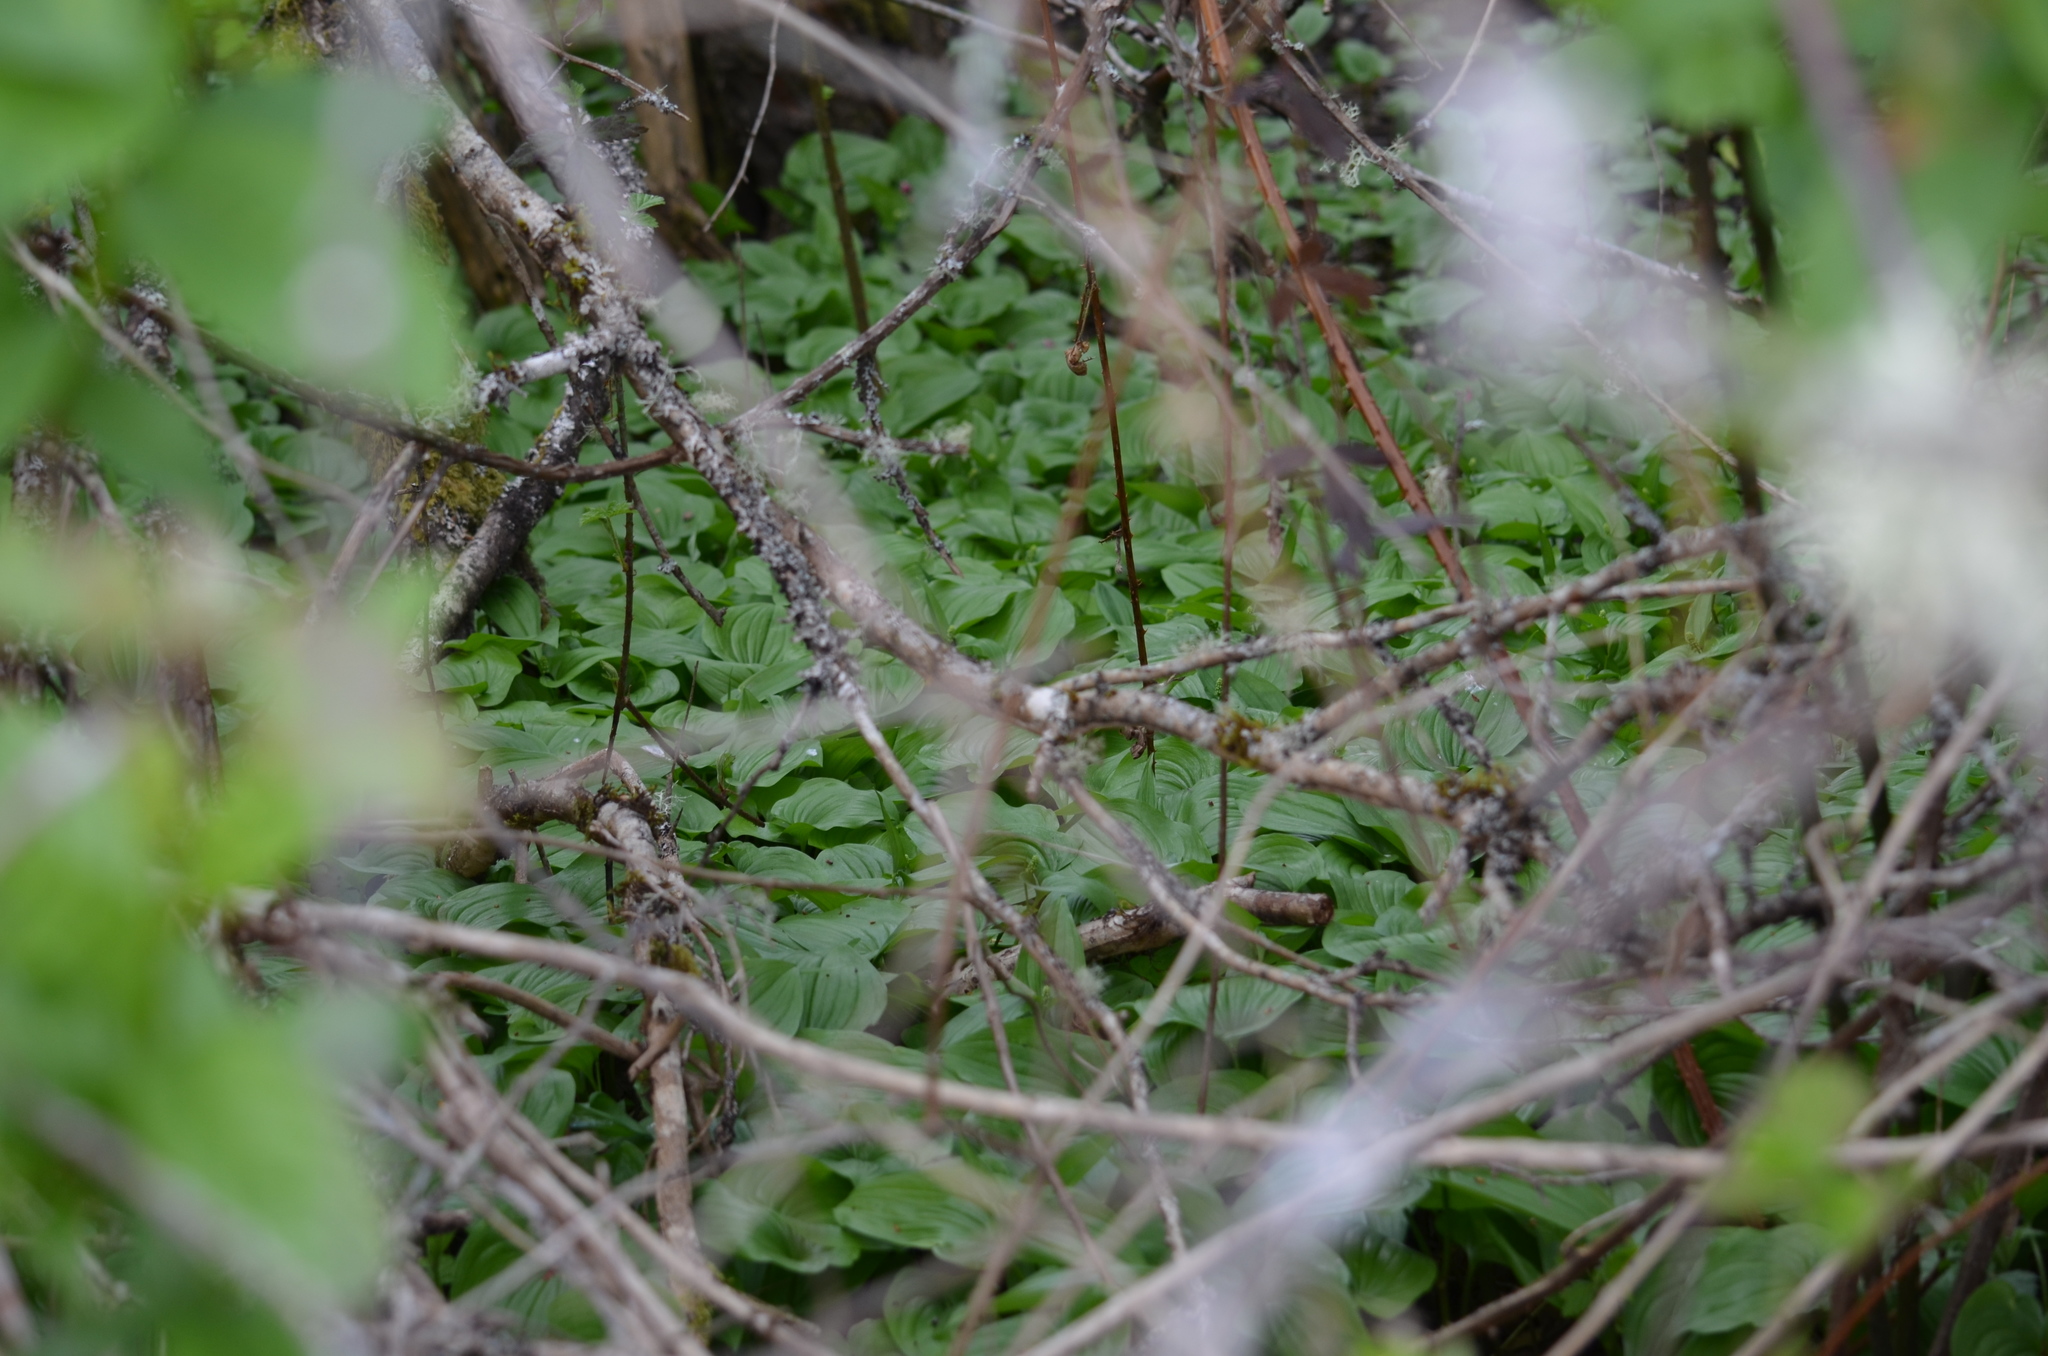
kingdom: Plantae
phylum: Tracheophyta
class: Liliopsida
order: Asparagales
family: Asparagaceae
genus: Maianthemum
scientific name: Maianthemum dilatatum
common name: False lily-of-the-valley
